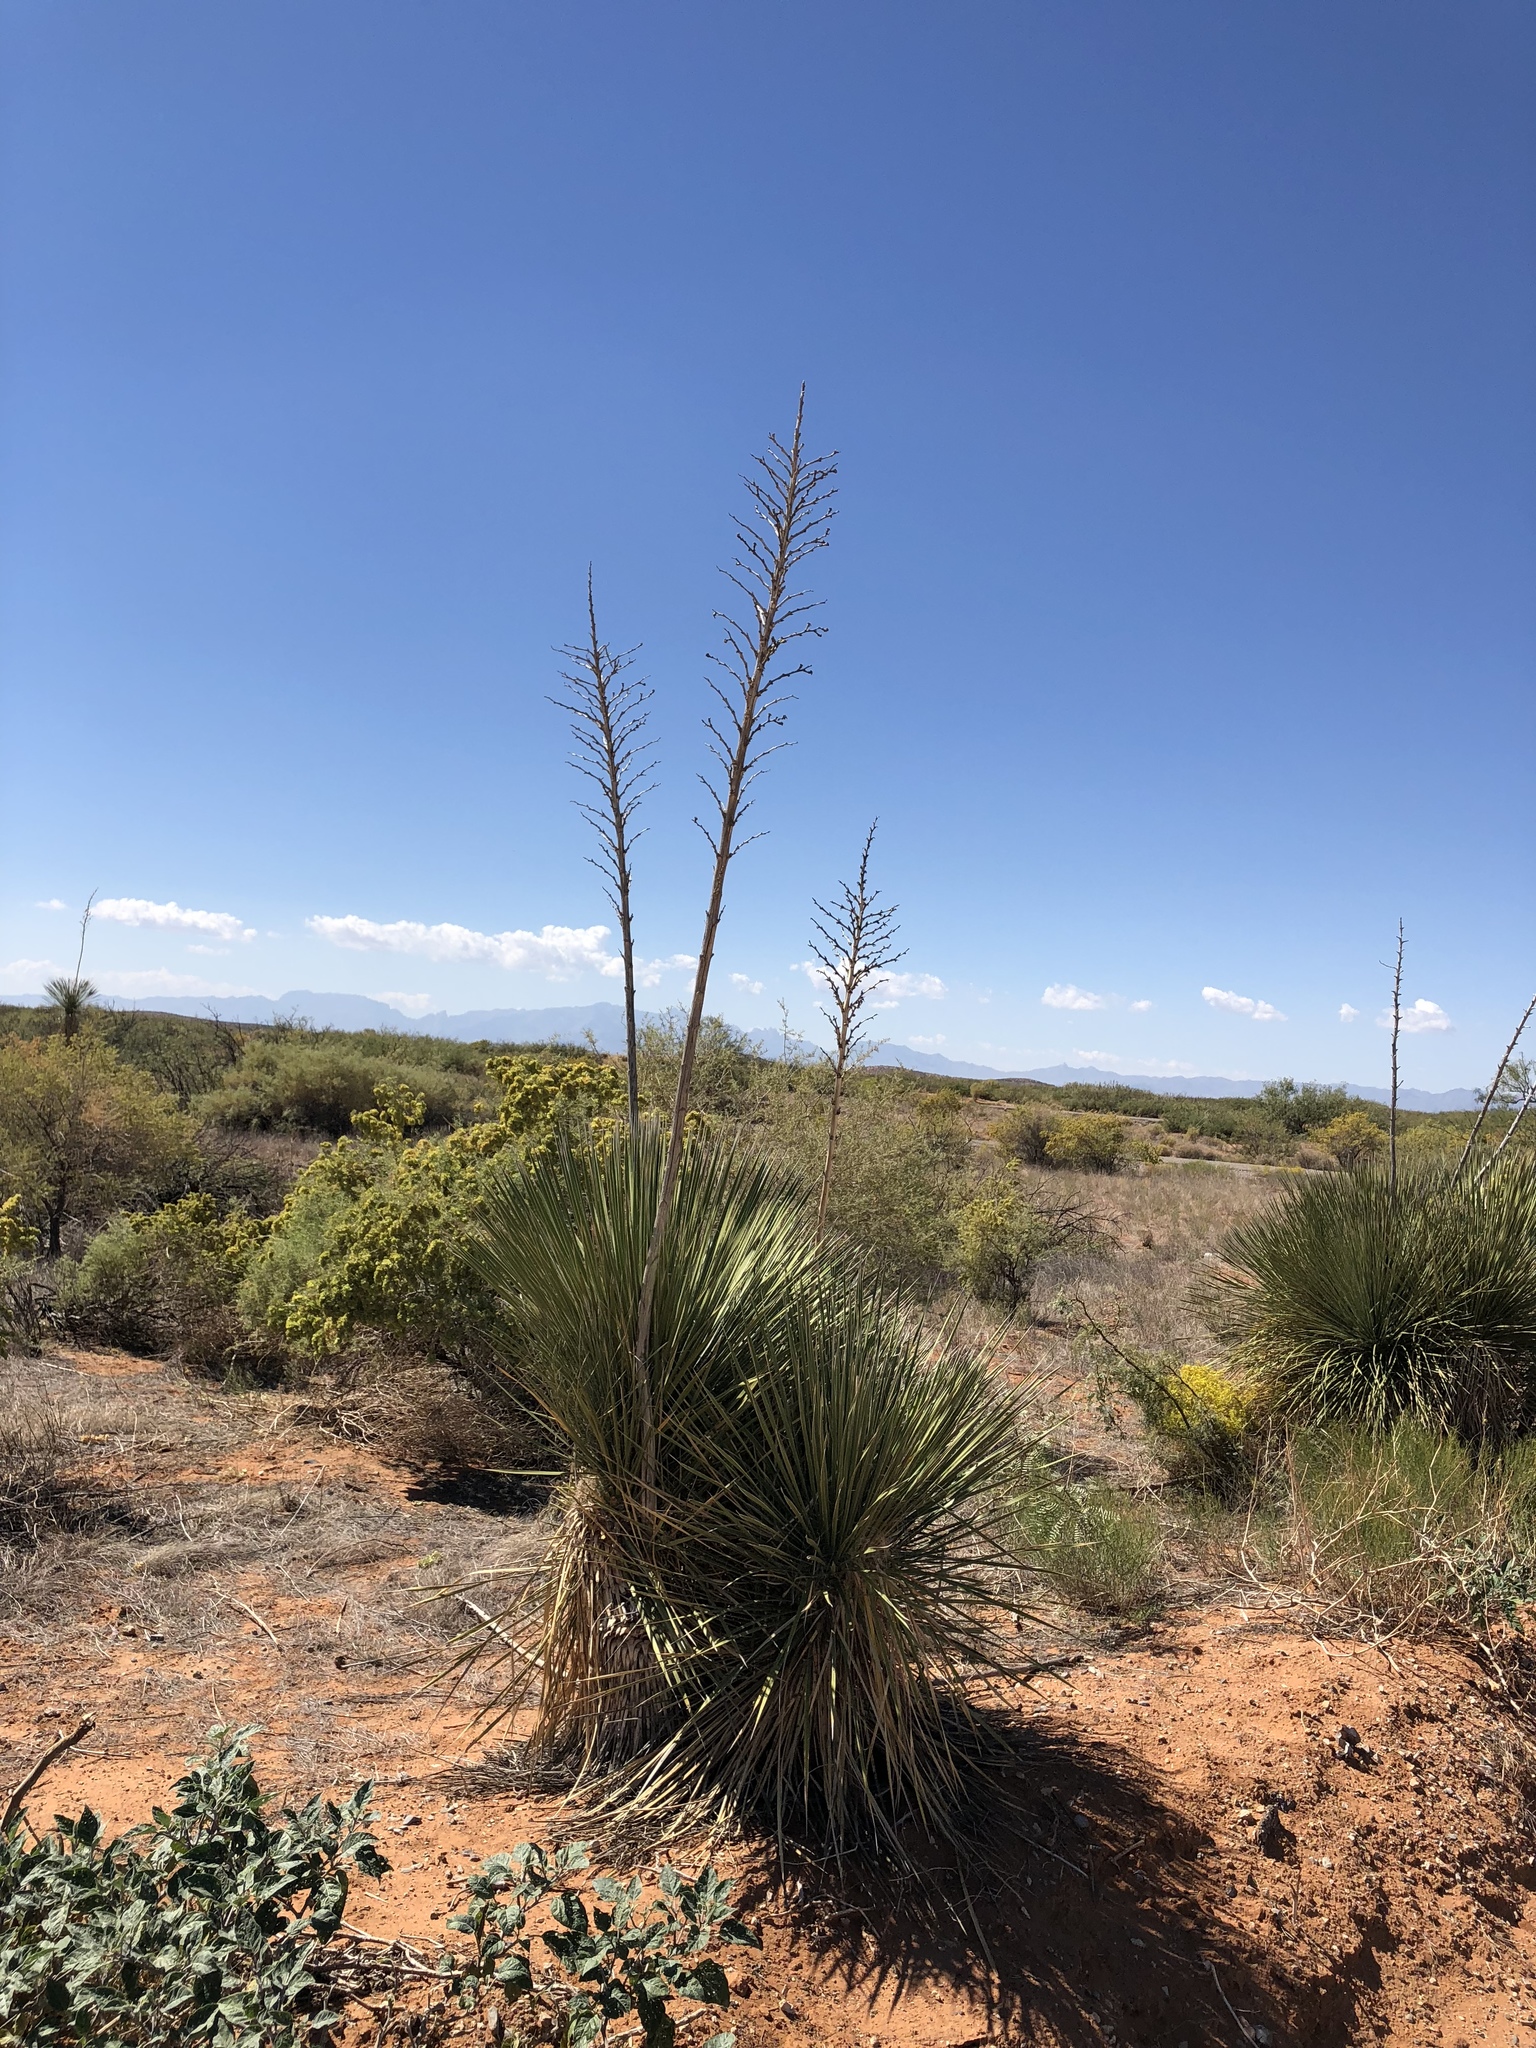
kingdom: Plantae
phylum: Tracheophyta
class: Liliopsida
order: Asparagales
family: Asparagaceae
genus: Yucca
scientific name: Yucca elata
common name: Palmella
